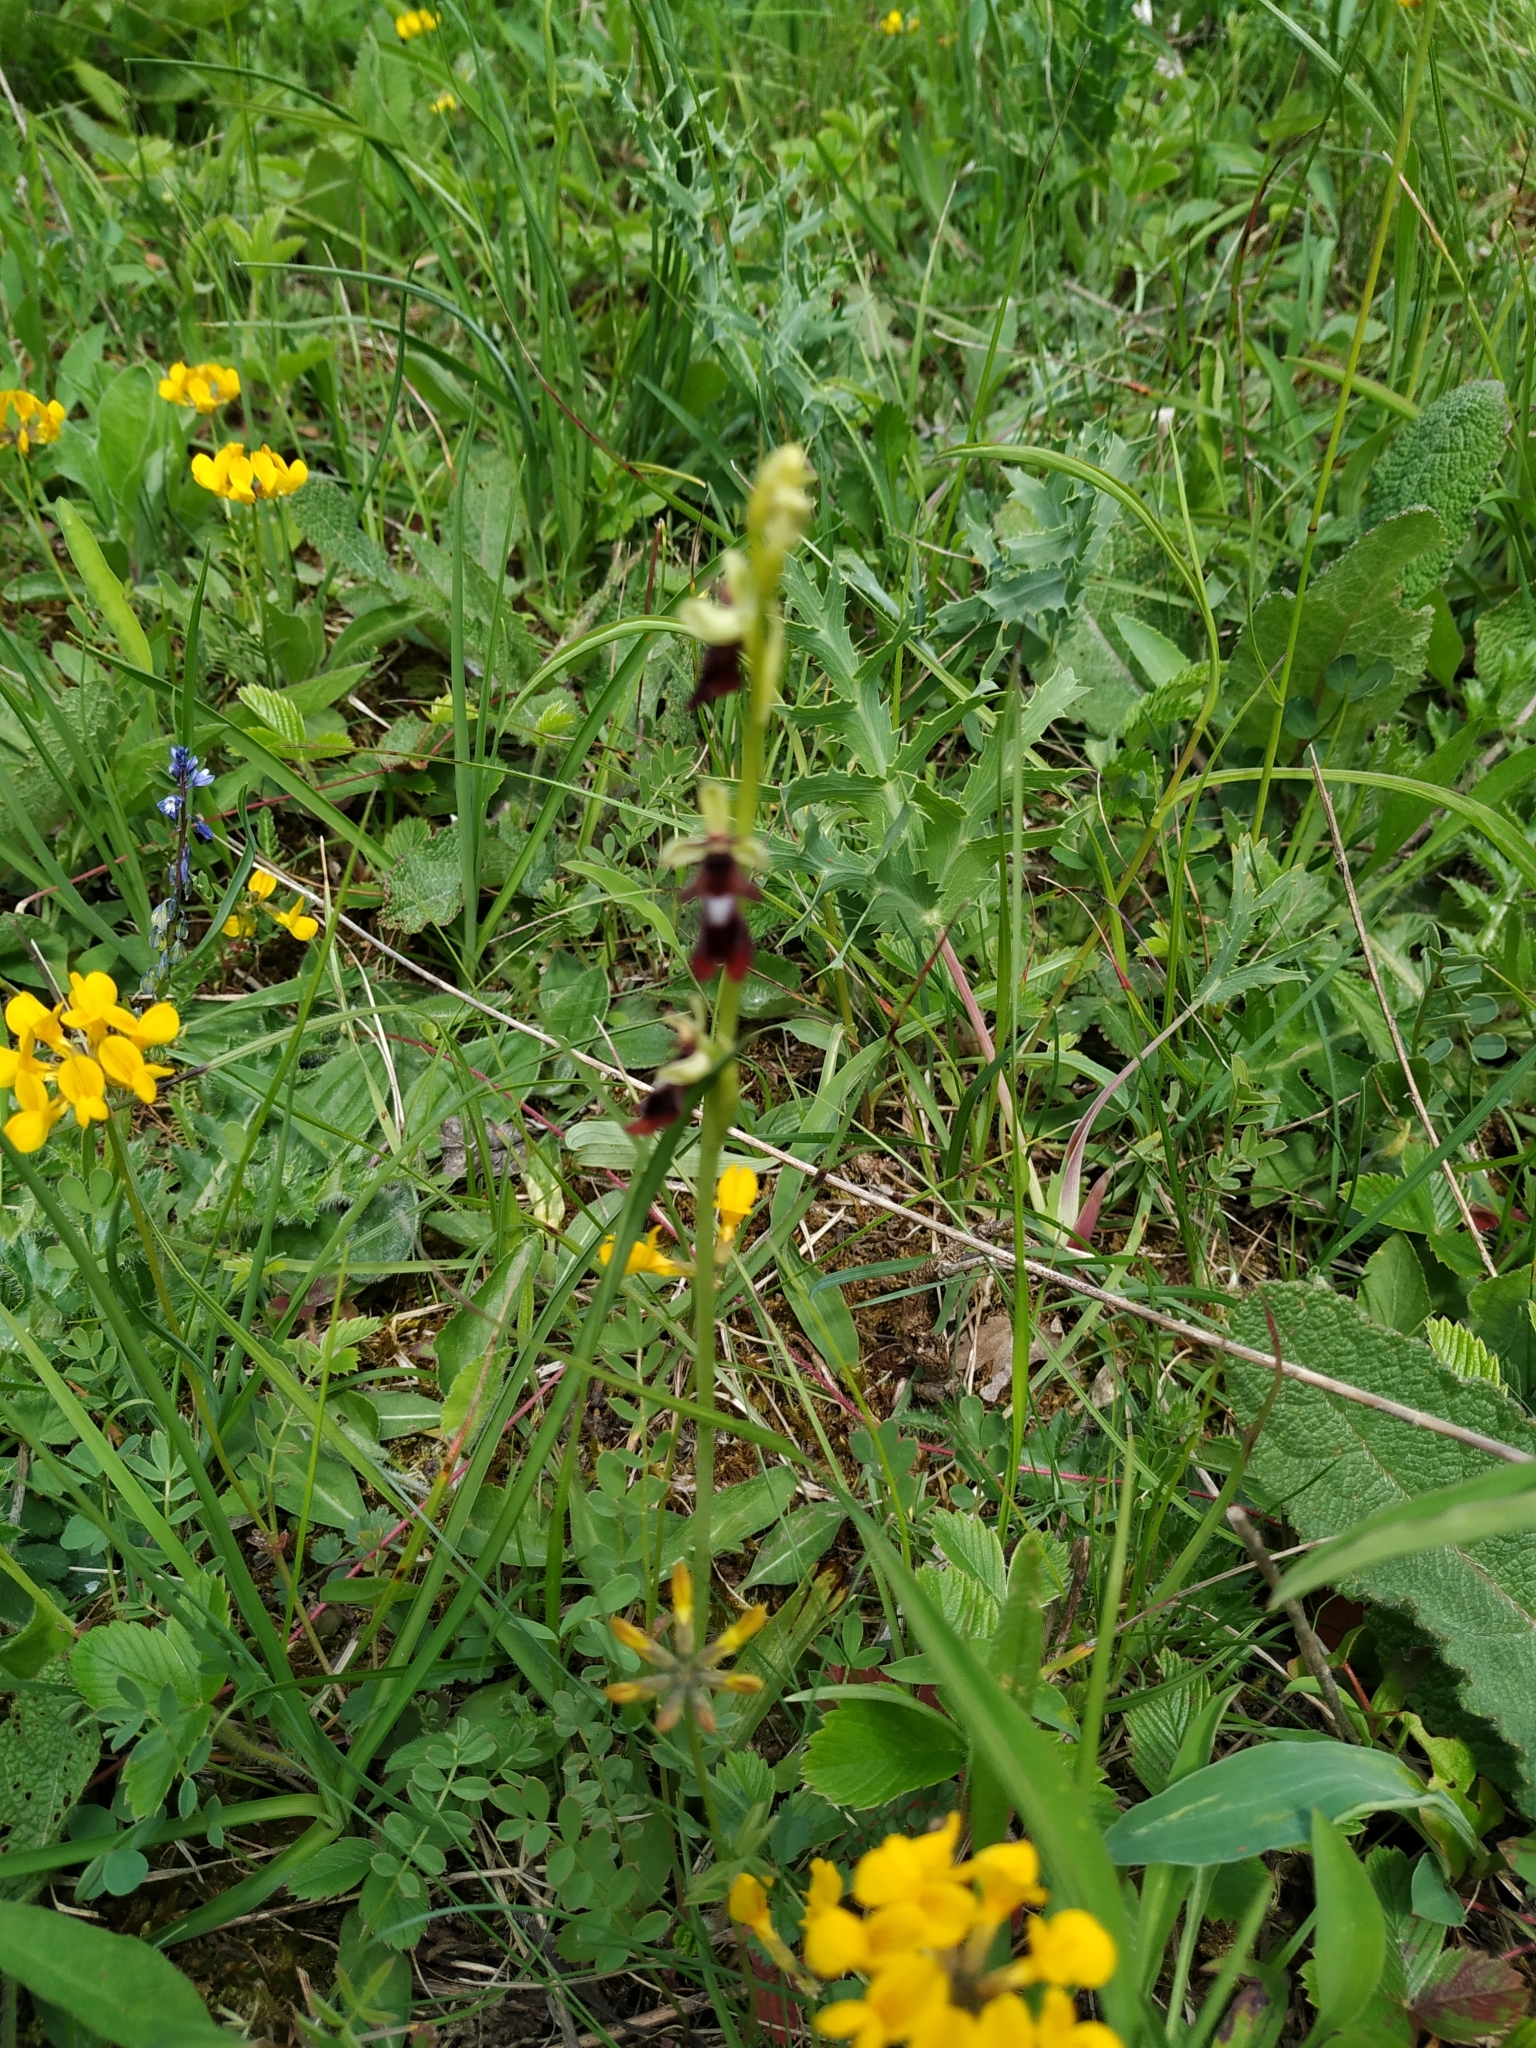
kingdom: Plantae
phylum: Tracheophyta
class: Liliopsida
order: Asparagales
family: Orchidaceae
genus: Ophrys
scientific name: Ophrys insectifera
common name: Fly orchid
